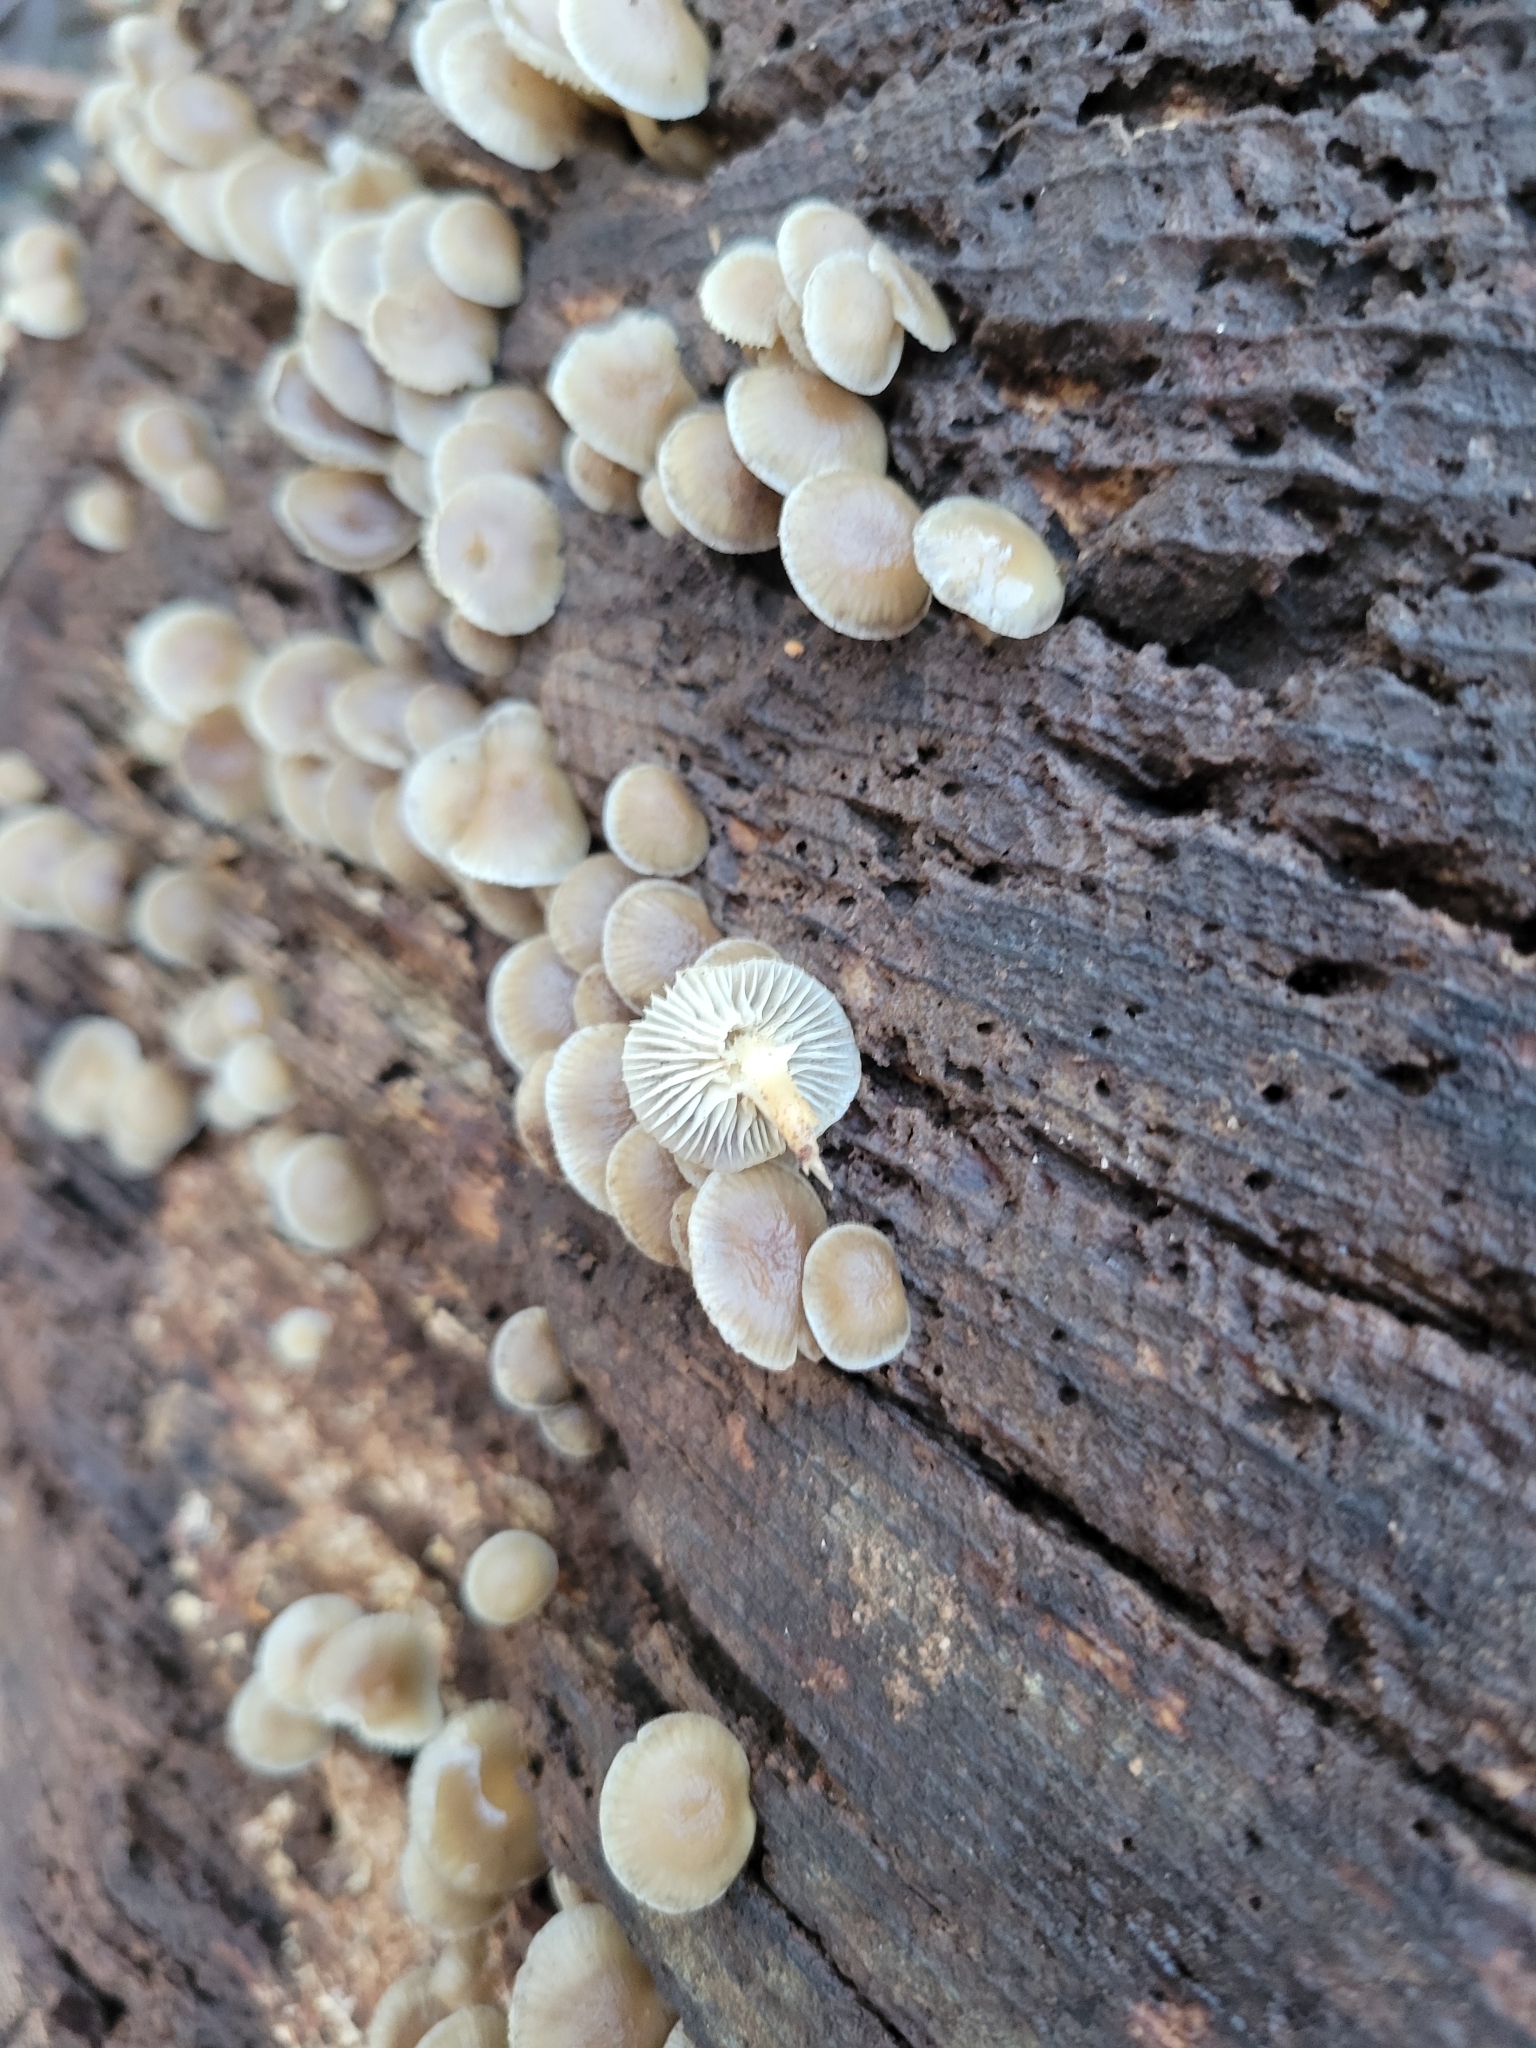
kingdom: Fungi
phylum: Basidiomycota
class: Agaricomycetes
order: Agaricales
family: Mycenaceae
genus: Mycena
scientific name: Mycena galericulata
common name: Bonnet mycena
